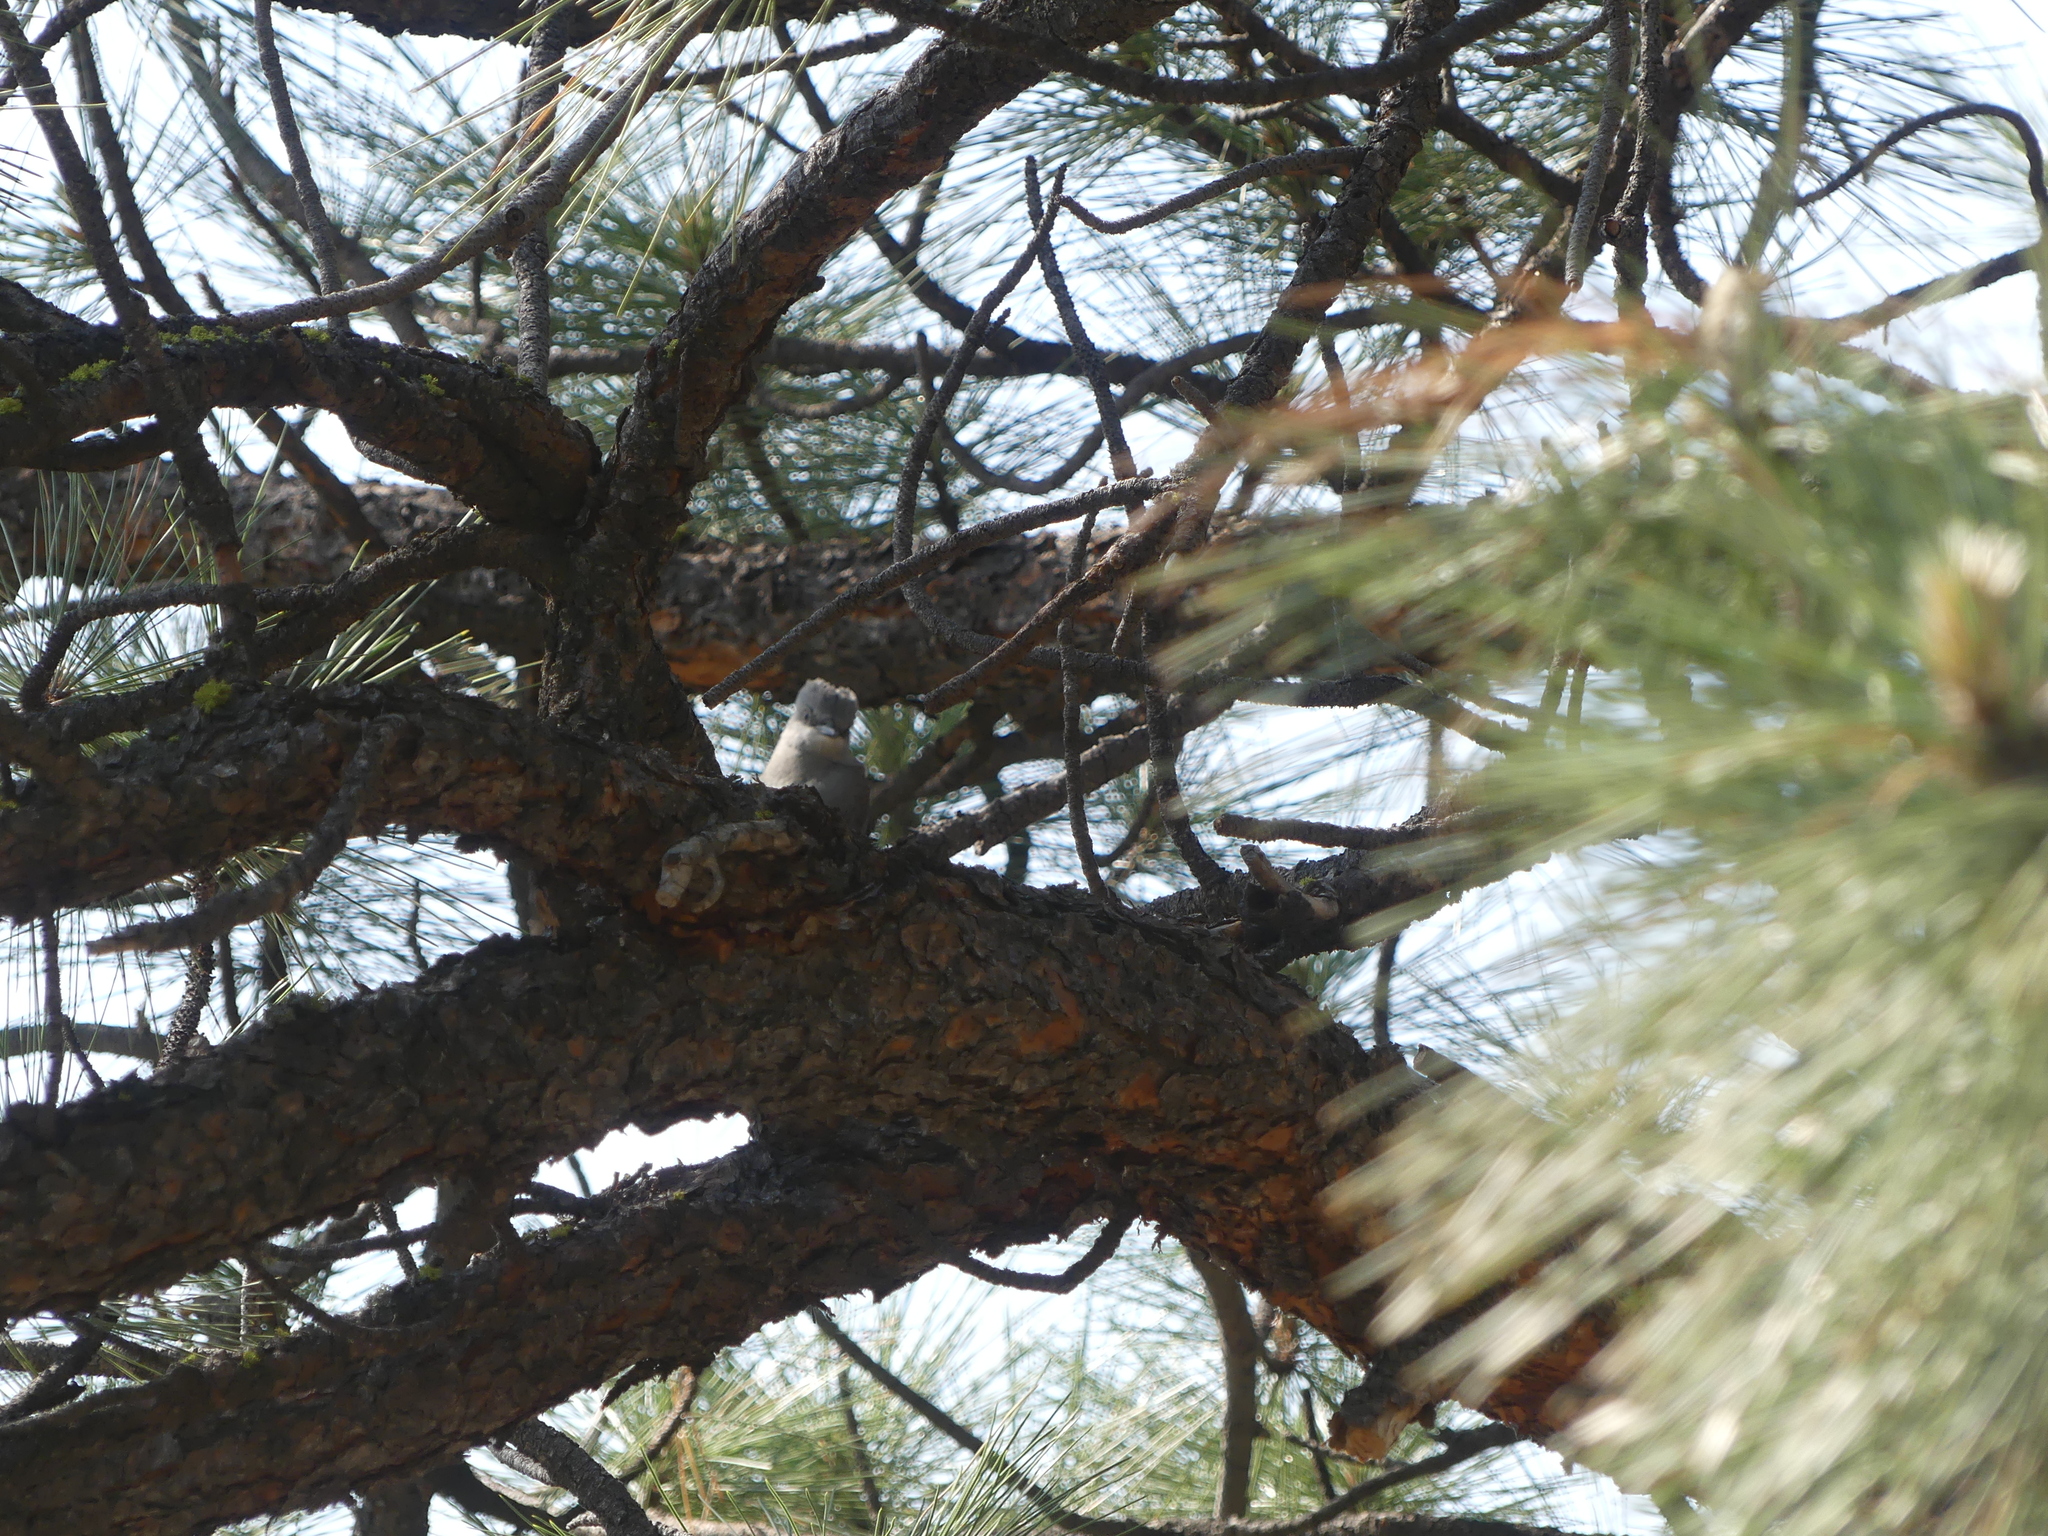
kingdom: Animalia
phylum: Chordata
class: Aves
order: Passeriformes
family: Tyrannidae
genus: Tyrannus
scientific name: Tyrannus verticalis
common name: Western kingbird
